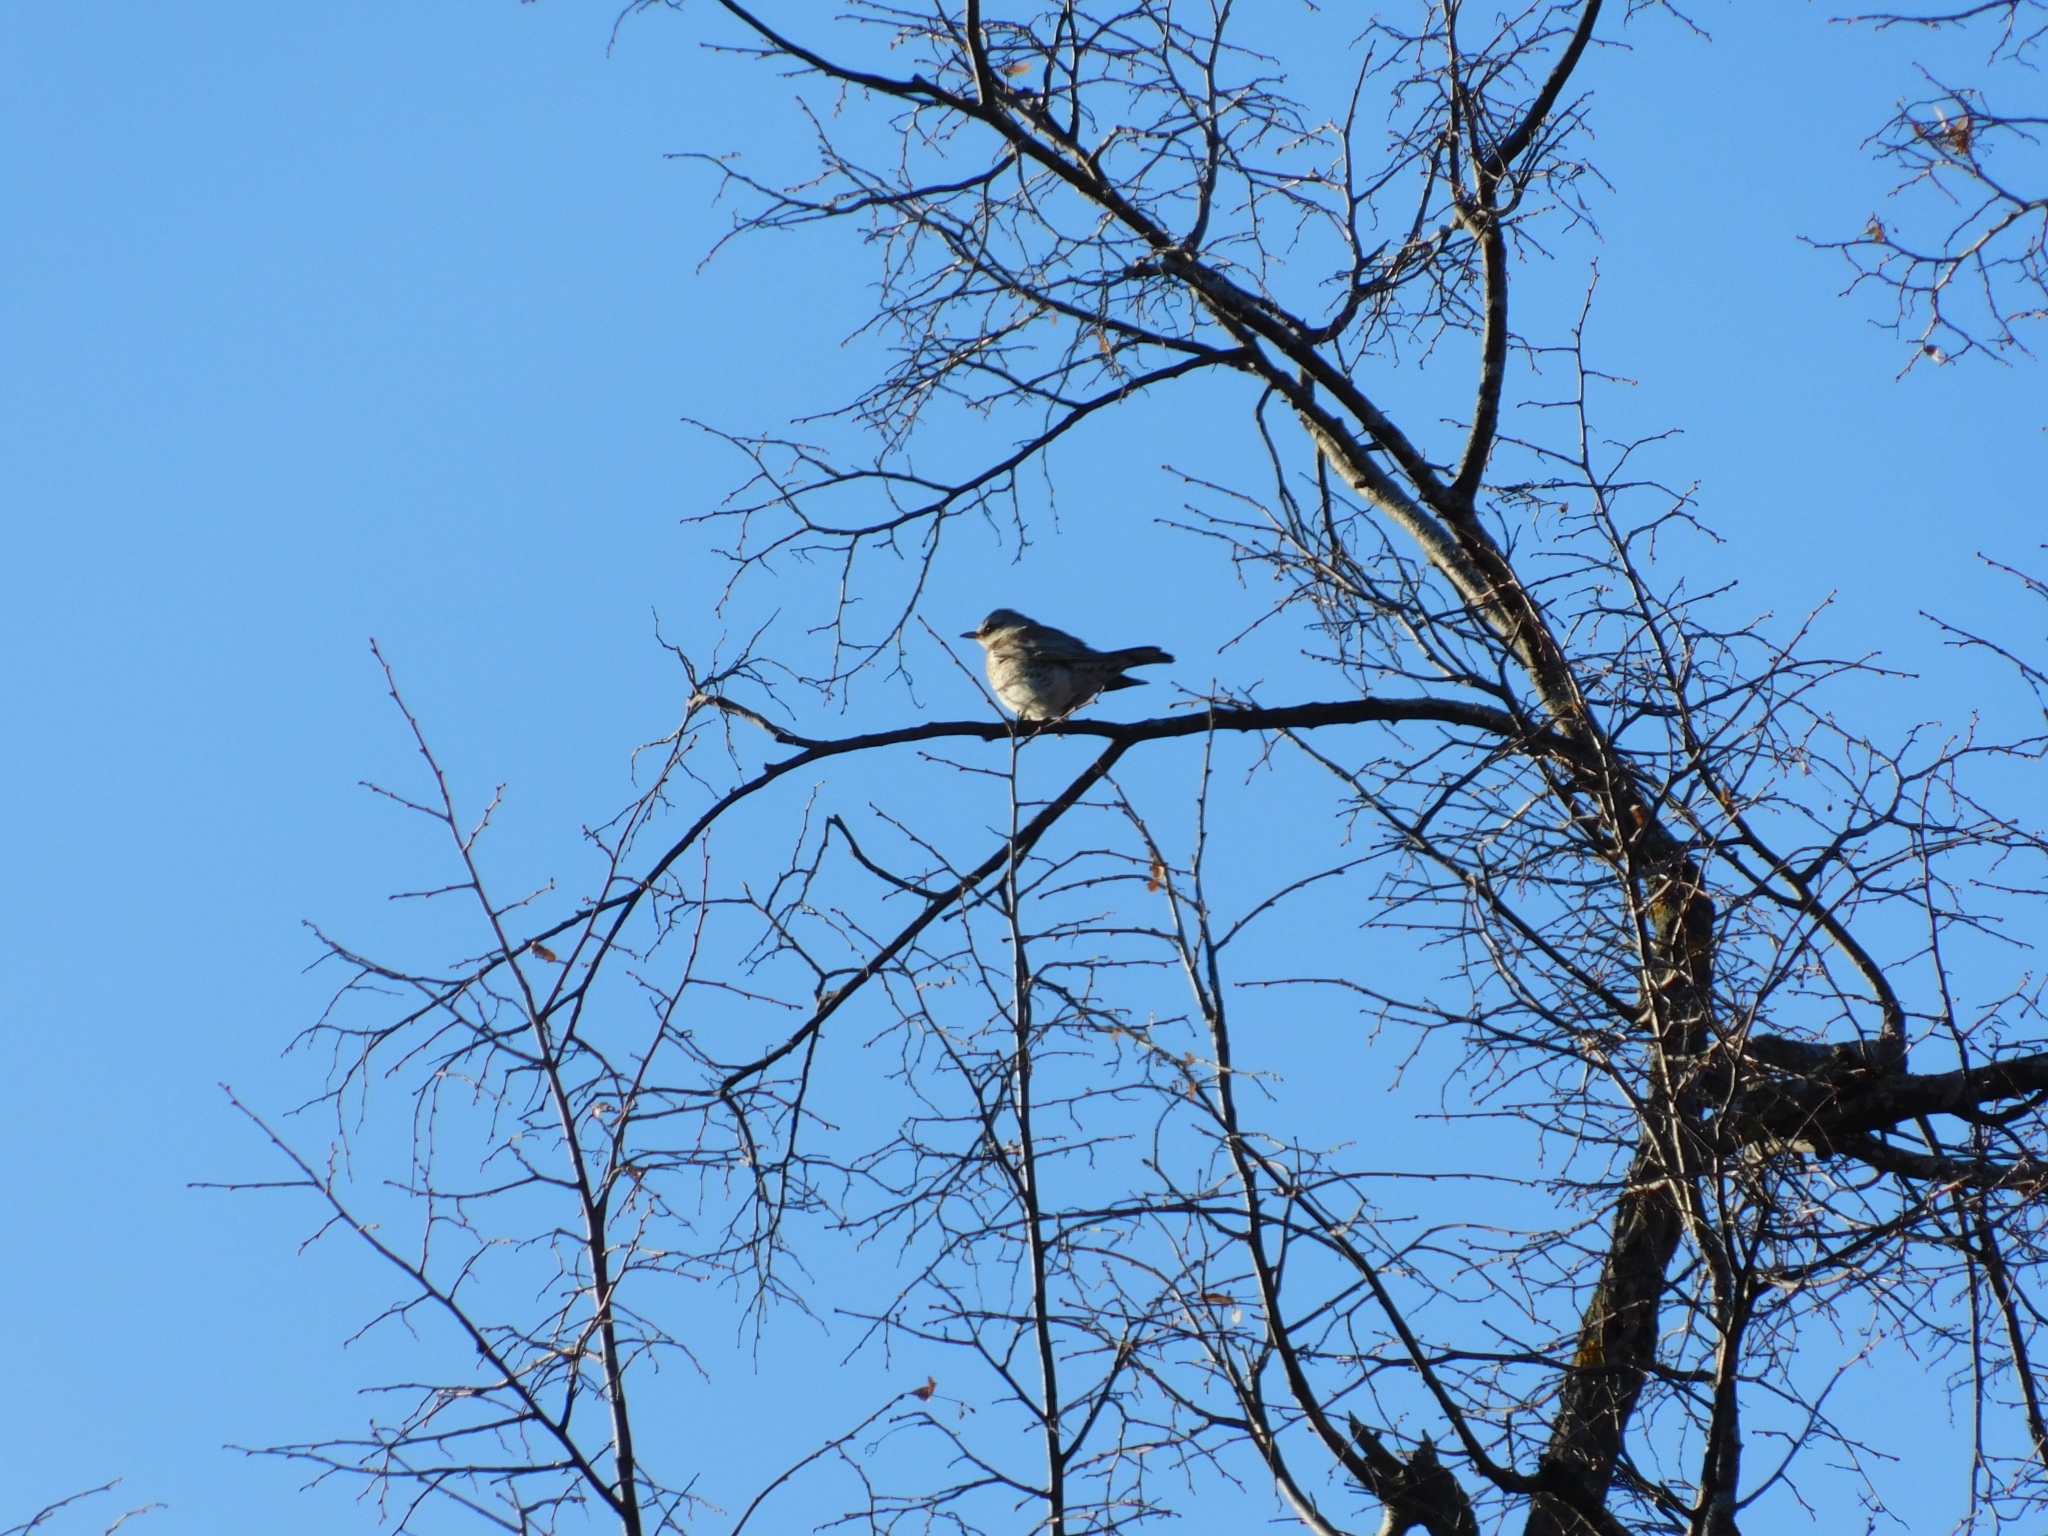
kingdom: Animalia
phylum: Chordata
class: Aves
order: Passeriformes
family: Turdidae
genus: Turdus
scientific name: Turdus pilaris
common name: Fieldfare
